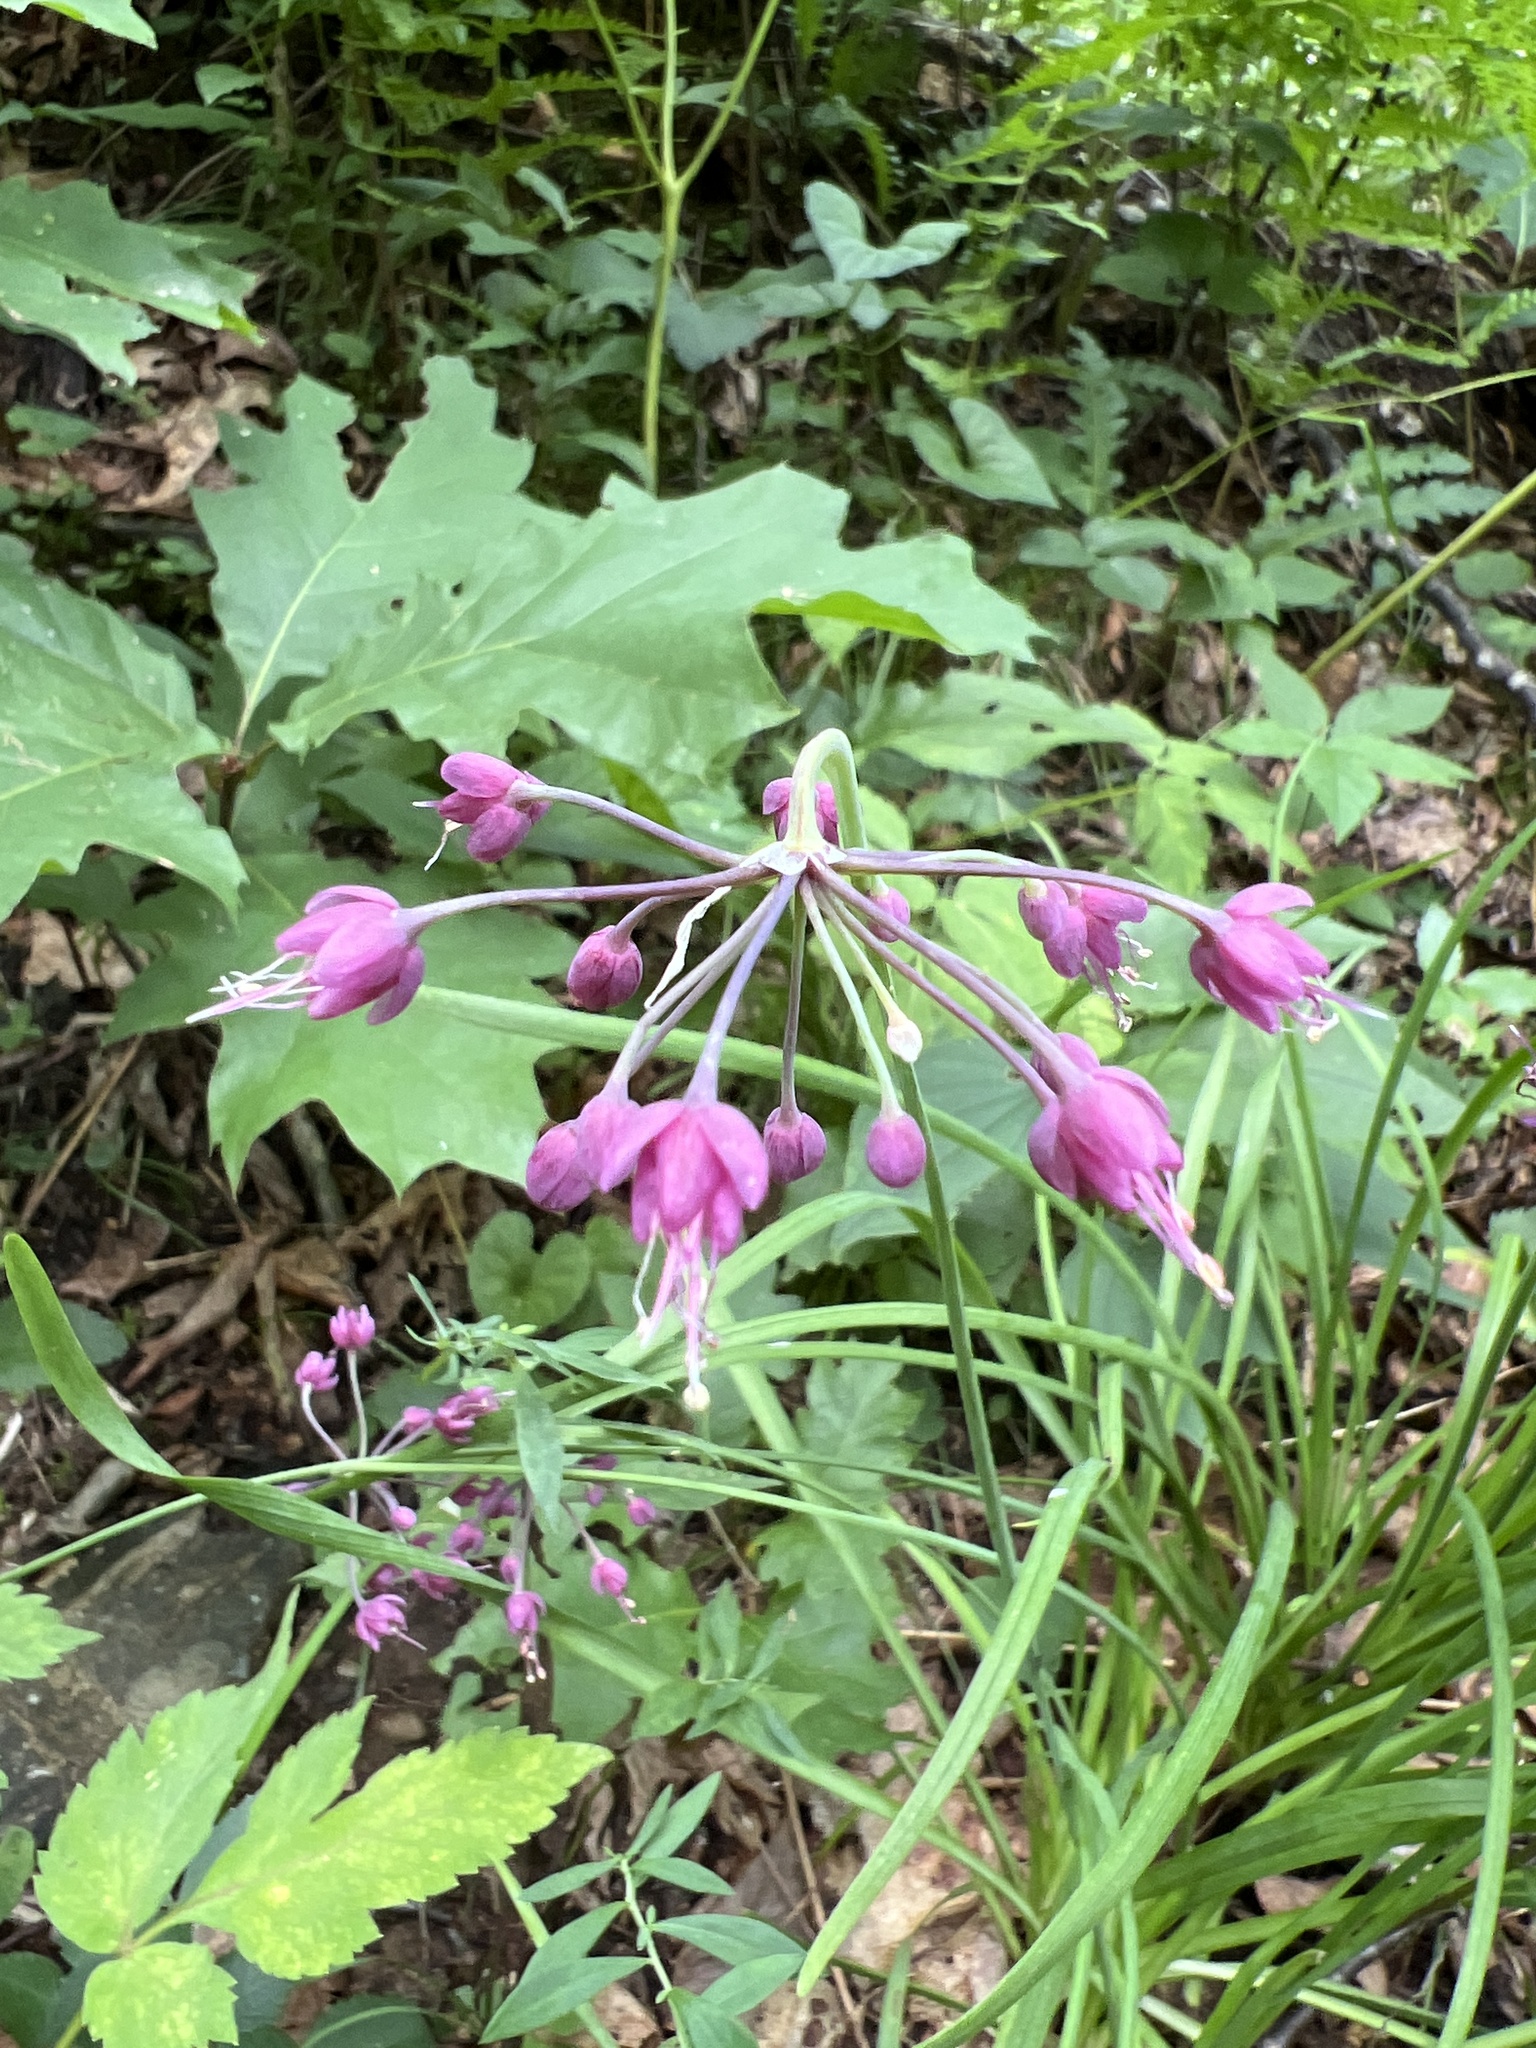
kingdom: Plantae
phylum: Tracheophyta
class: Liliopsida
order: Asparagales
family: Amaryllidaceae
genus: Allium
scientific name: Allium cernuum
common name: Nodding onion
